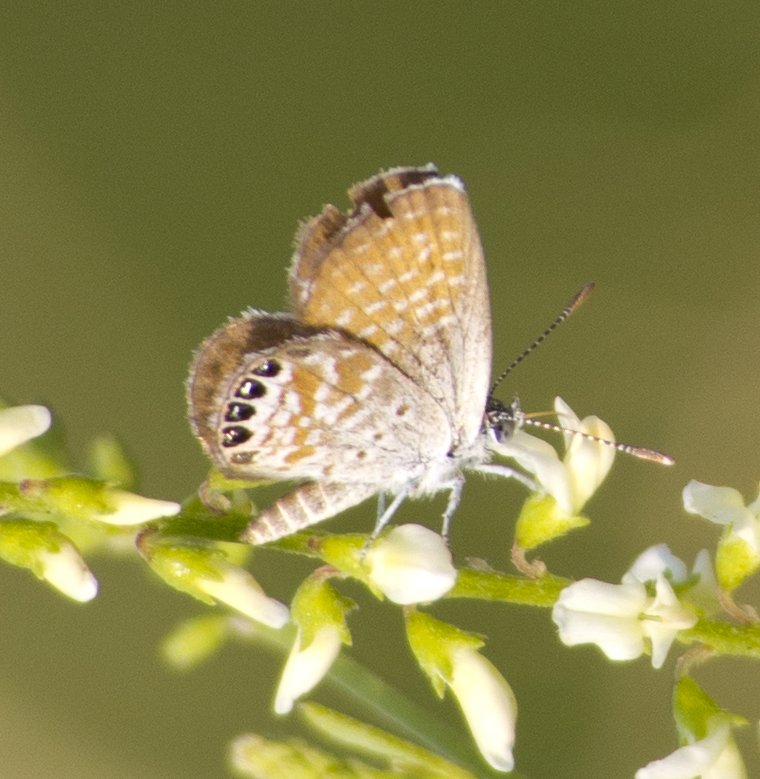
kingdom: Animalia
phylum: Arthropoda
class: Insecta
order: Lepidoptera
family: Lycaenidae
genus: Brephidium
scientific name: Brephidium exilis
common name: Pygmy blue
